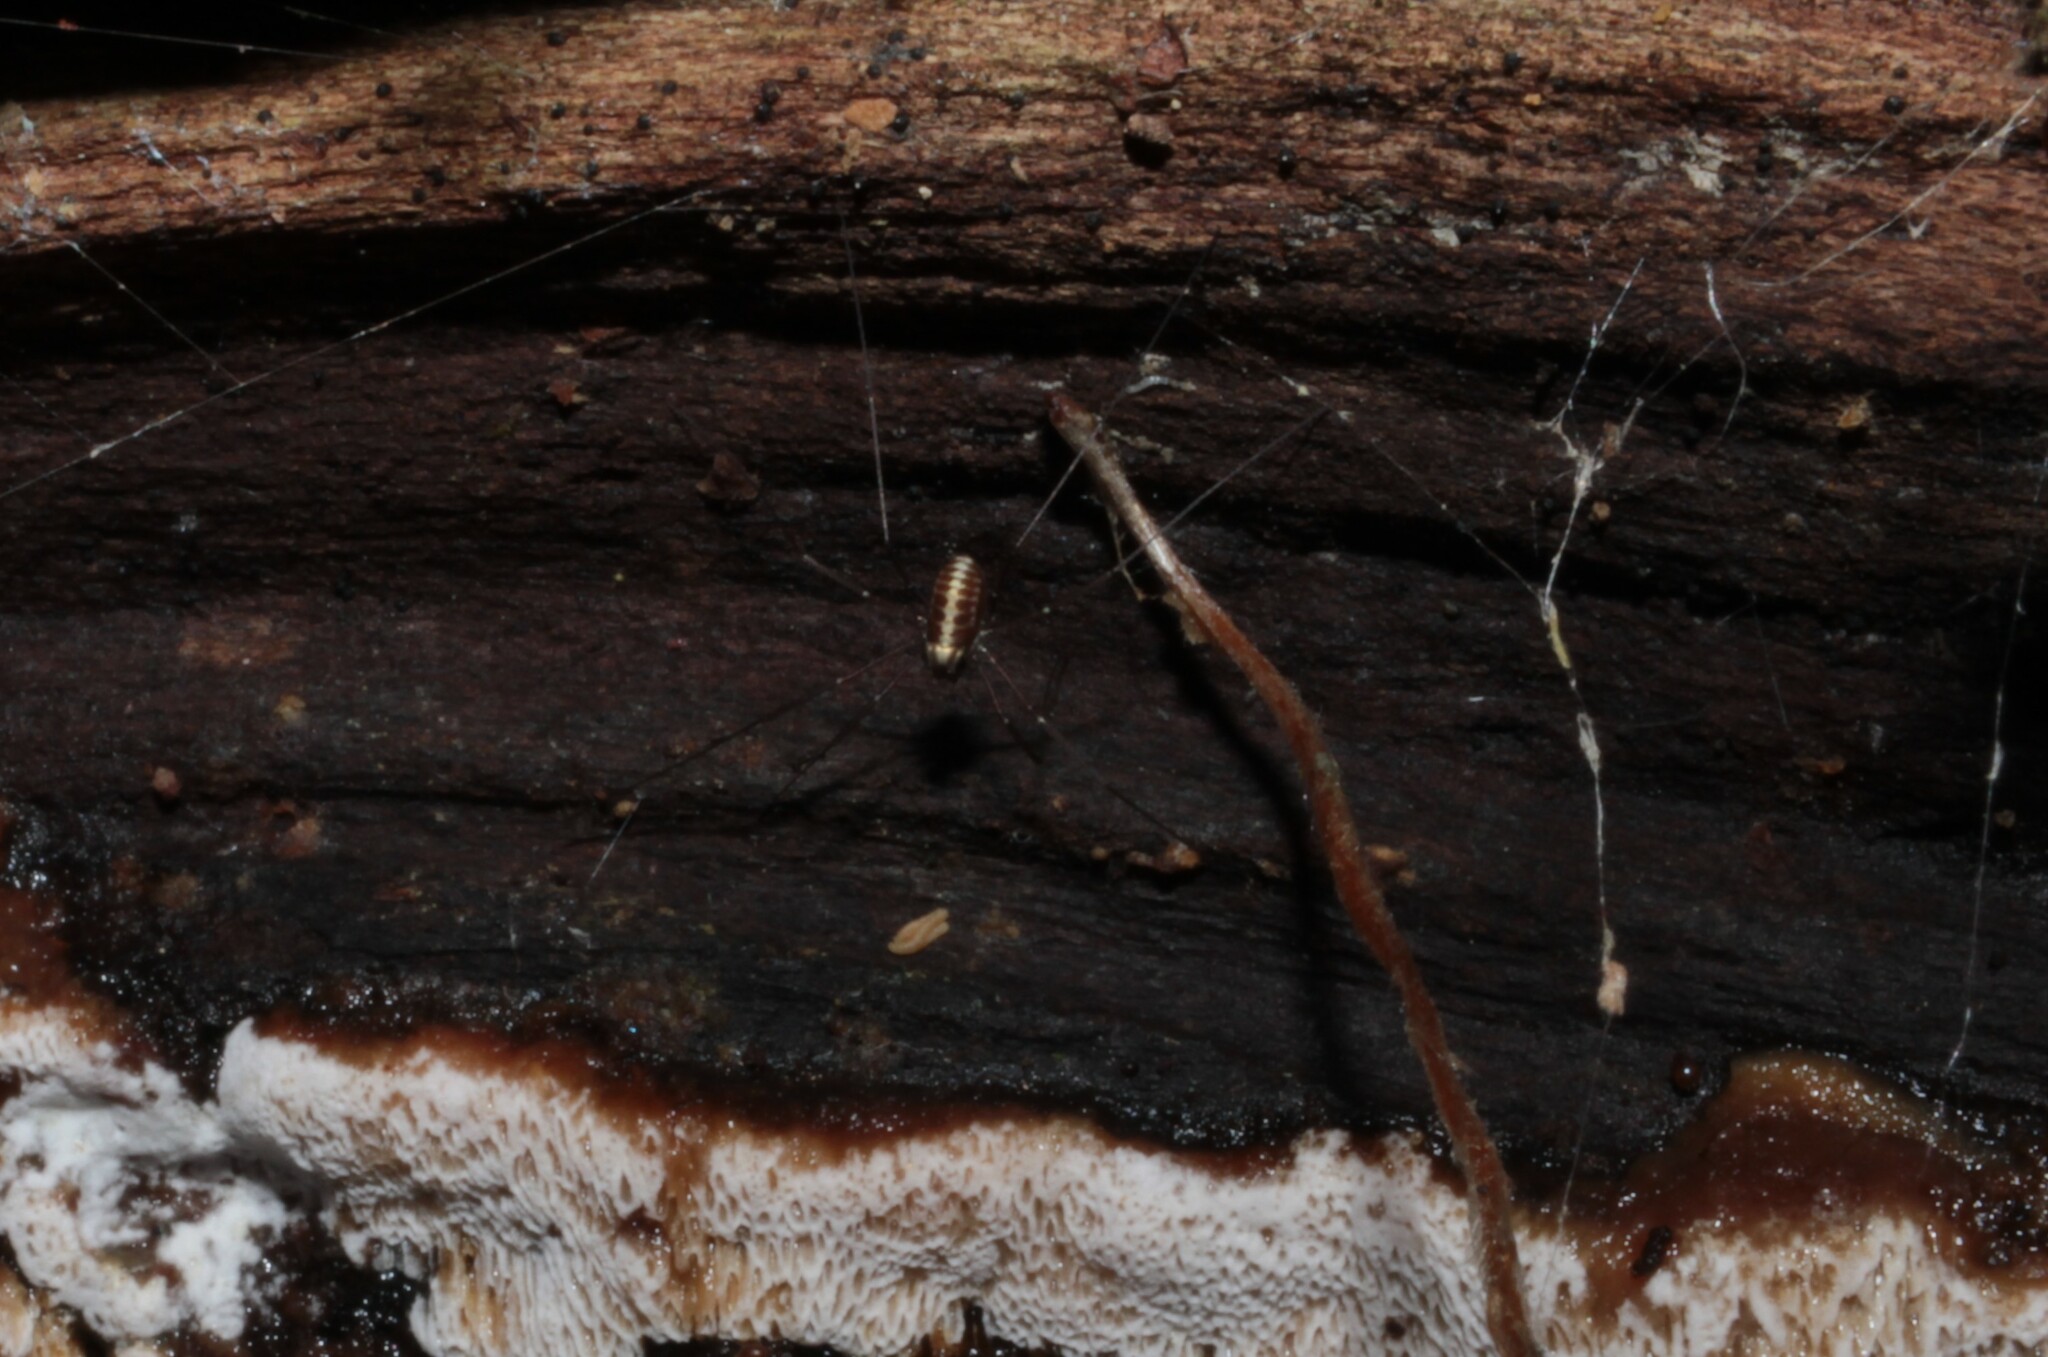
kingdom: Animalia
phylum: Arthropoda
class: Arachnida
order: Opiliones
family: Caddidae
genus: Caddo
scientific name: Caddo agilis
